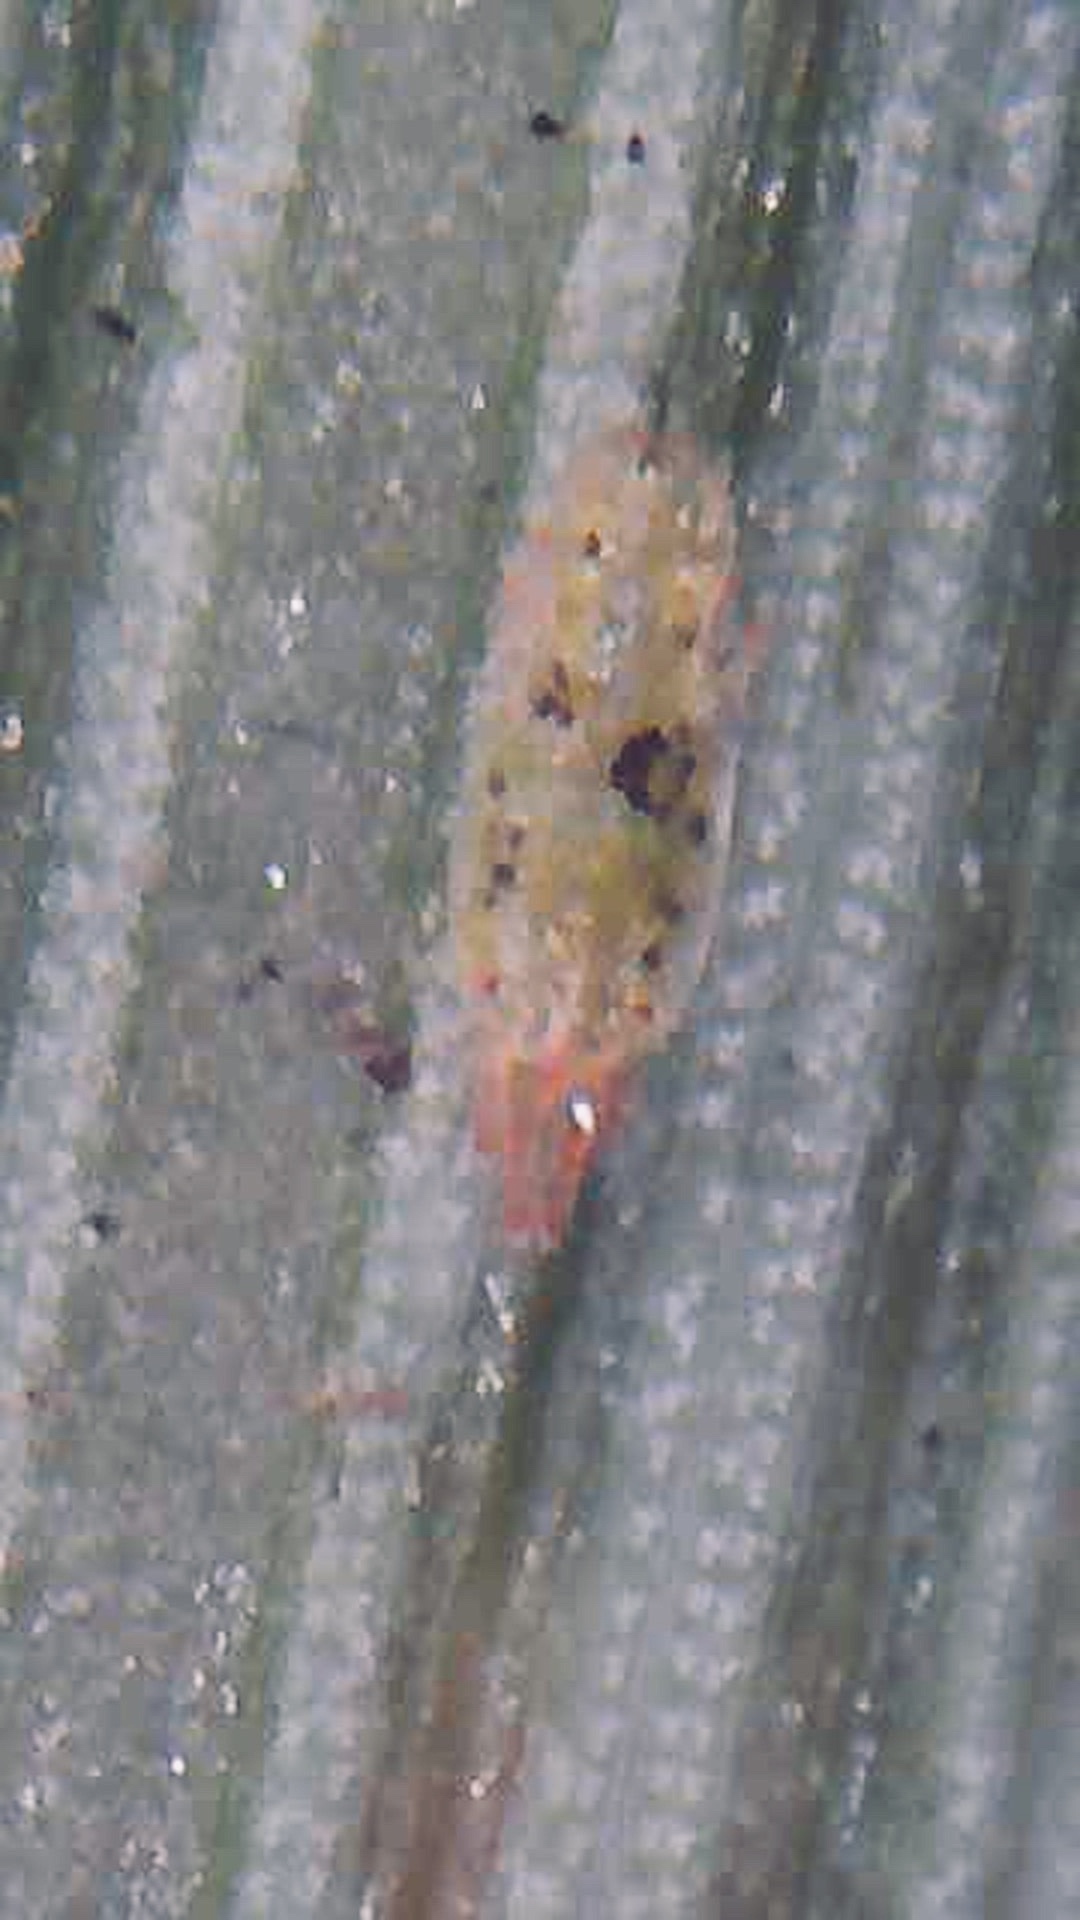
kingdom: Animalia
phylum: Arthropoda
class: Arachnida
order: Trombidiformes
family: Tenuipalpidae
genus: Acaricis
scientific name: Acaricis urigersoni
